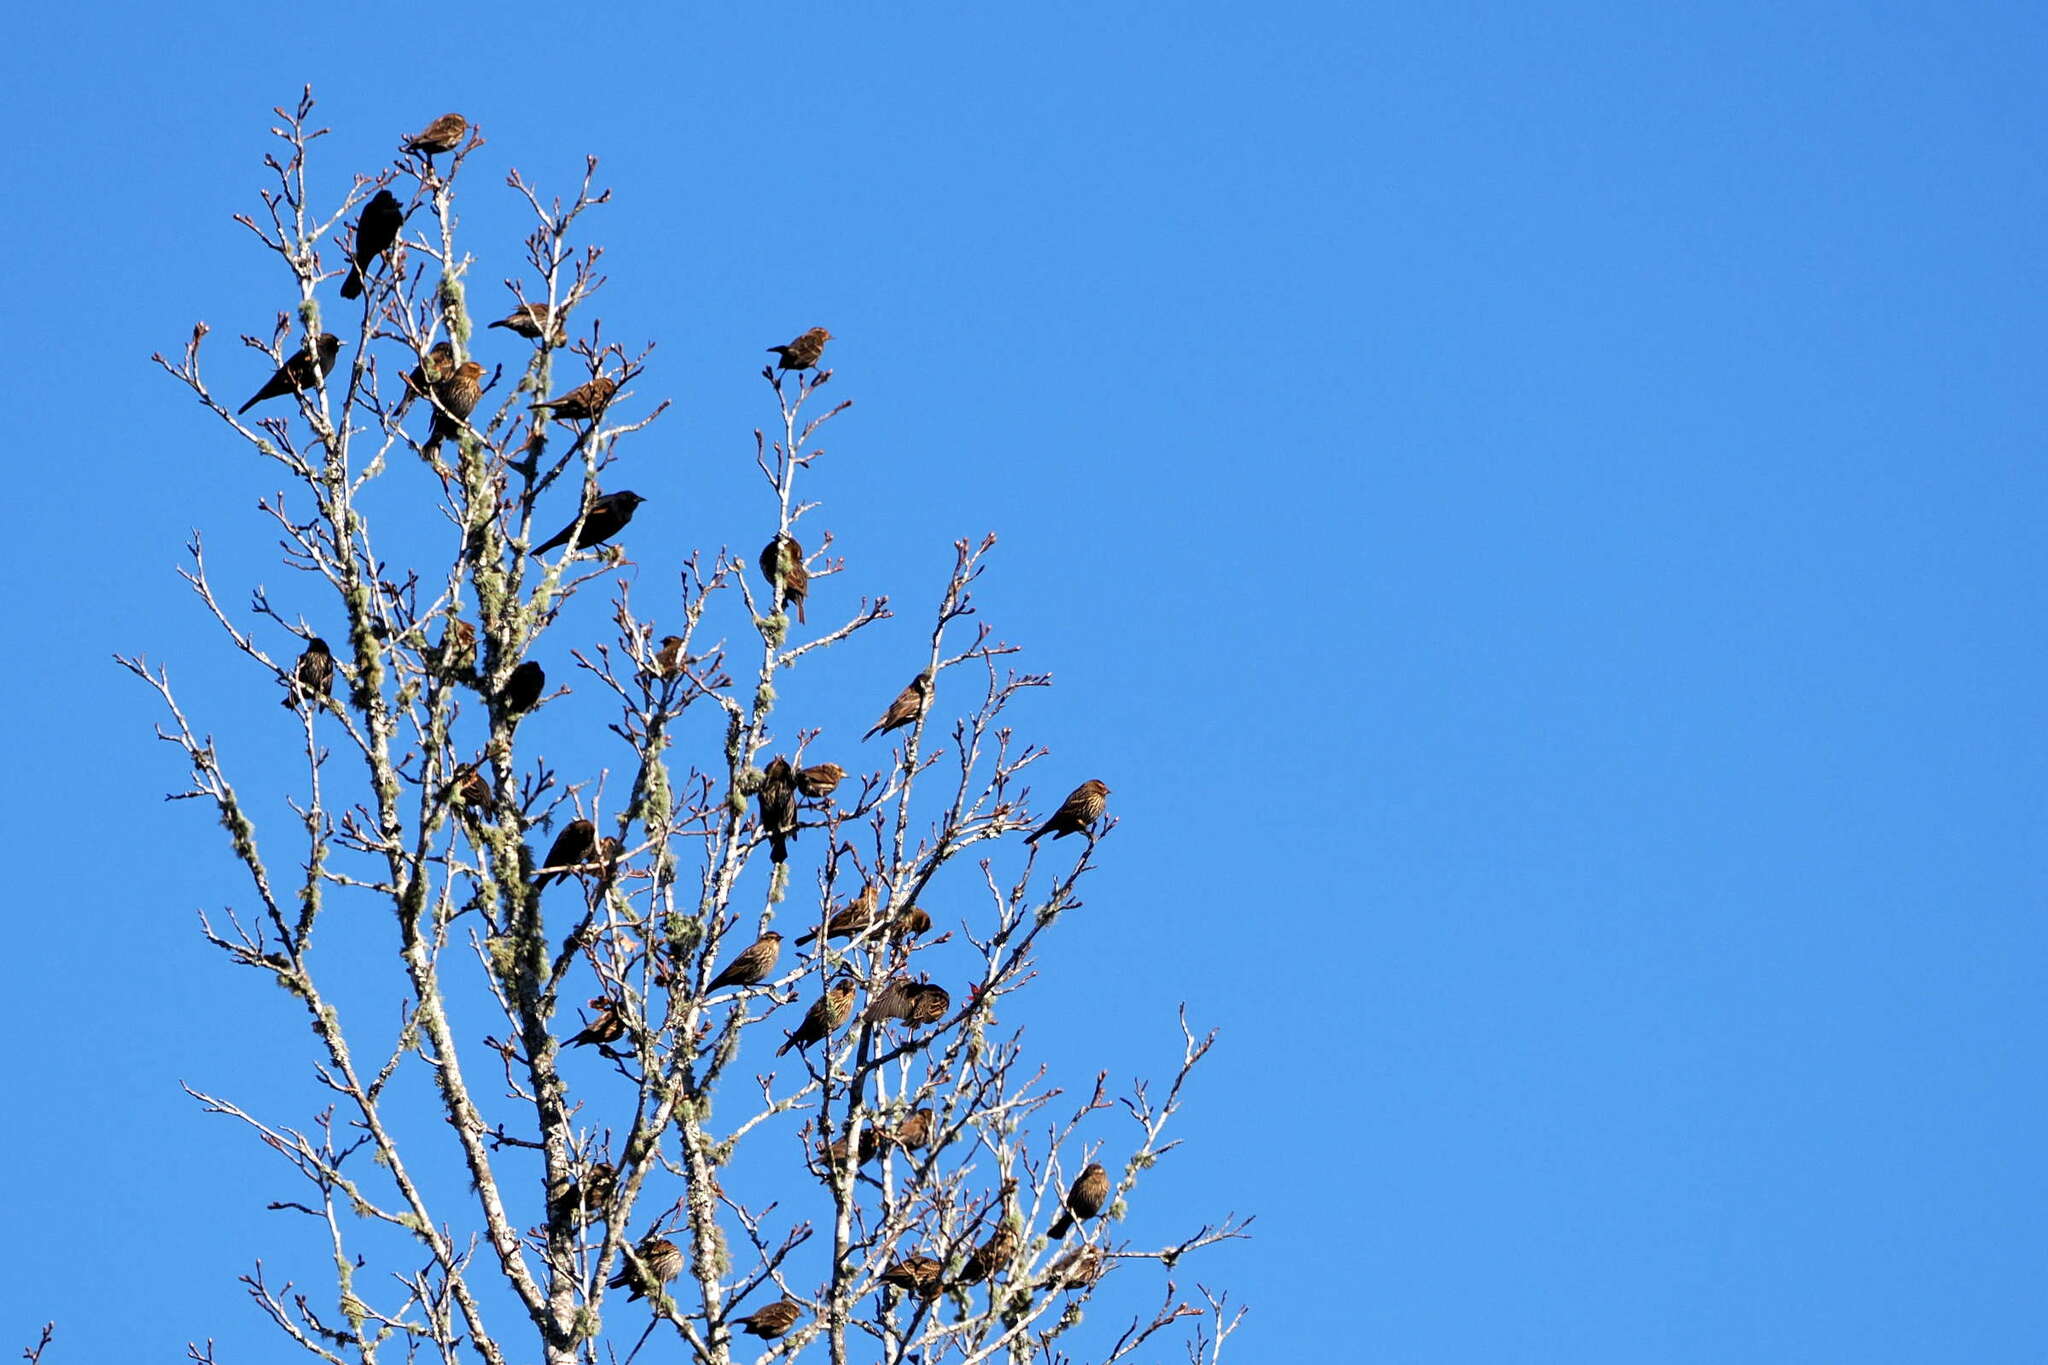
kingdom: Animalia
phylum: Chordata
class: Aves
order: Passeriformes
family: Icteridae
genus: Agelaius
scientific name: Agelaius phoeniceus
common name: Red-winged blackbird
